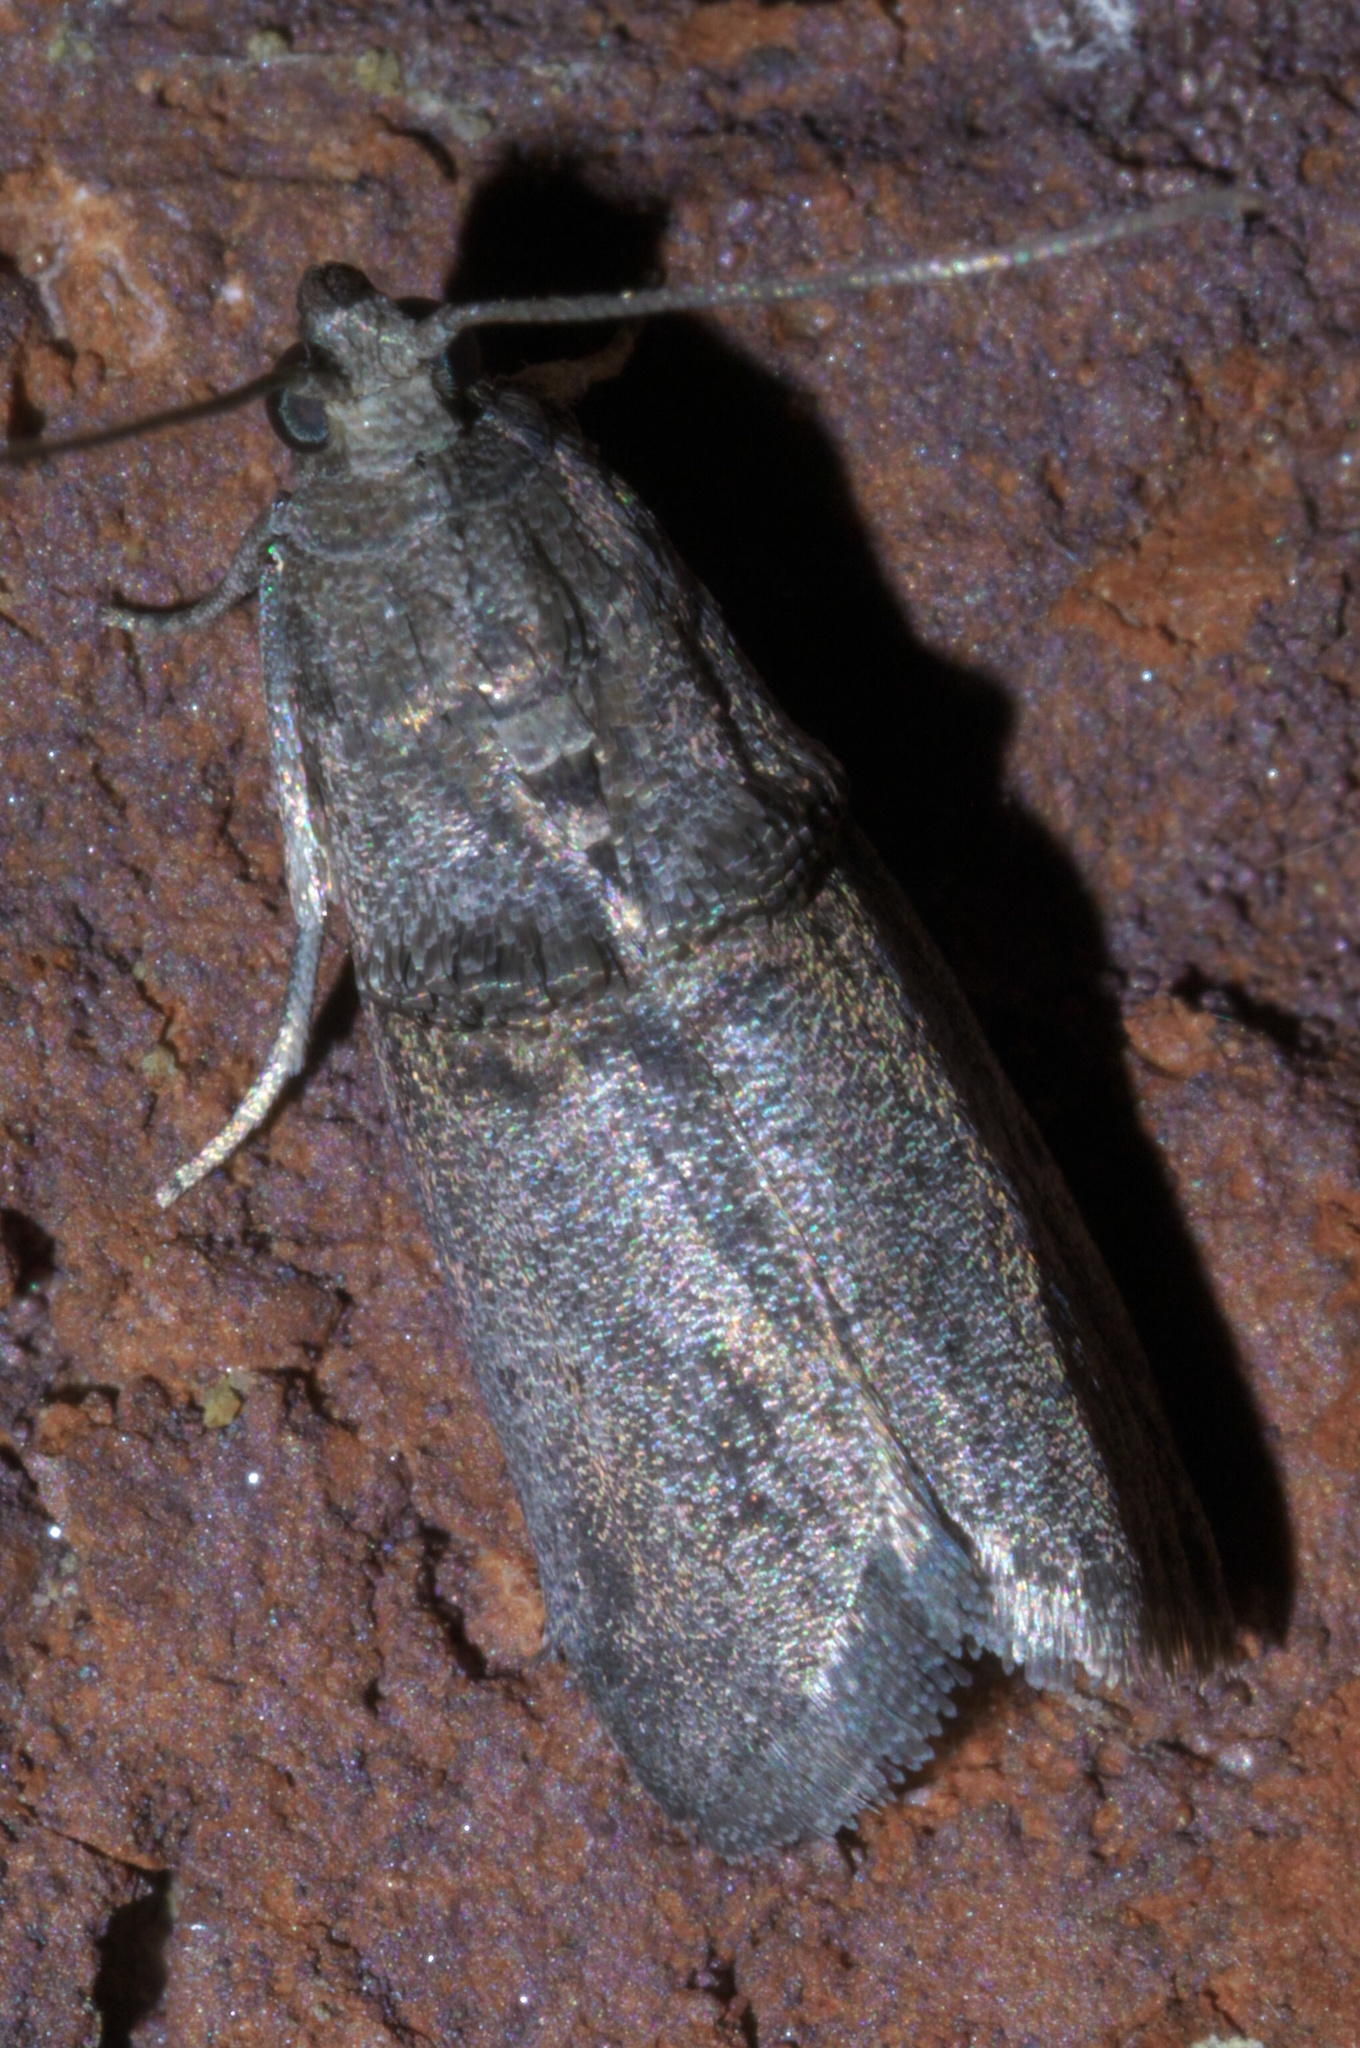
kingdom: Animalia
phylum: Arthropoda
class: Insecta
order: Lepidoptera
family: Pyralidae
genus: Acrobasis
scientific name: Acrobasis caryae
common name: Hickory shoot borer moth
